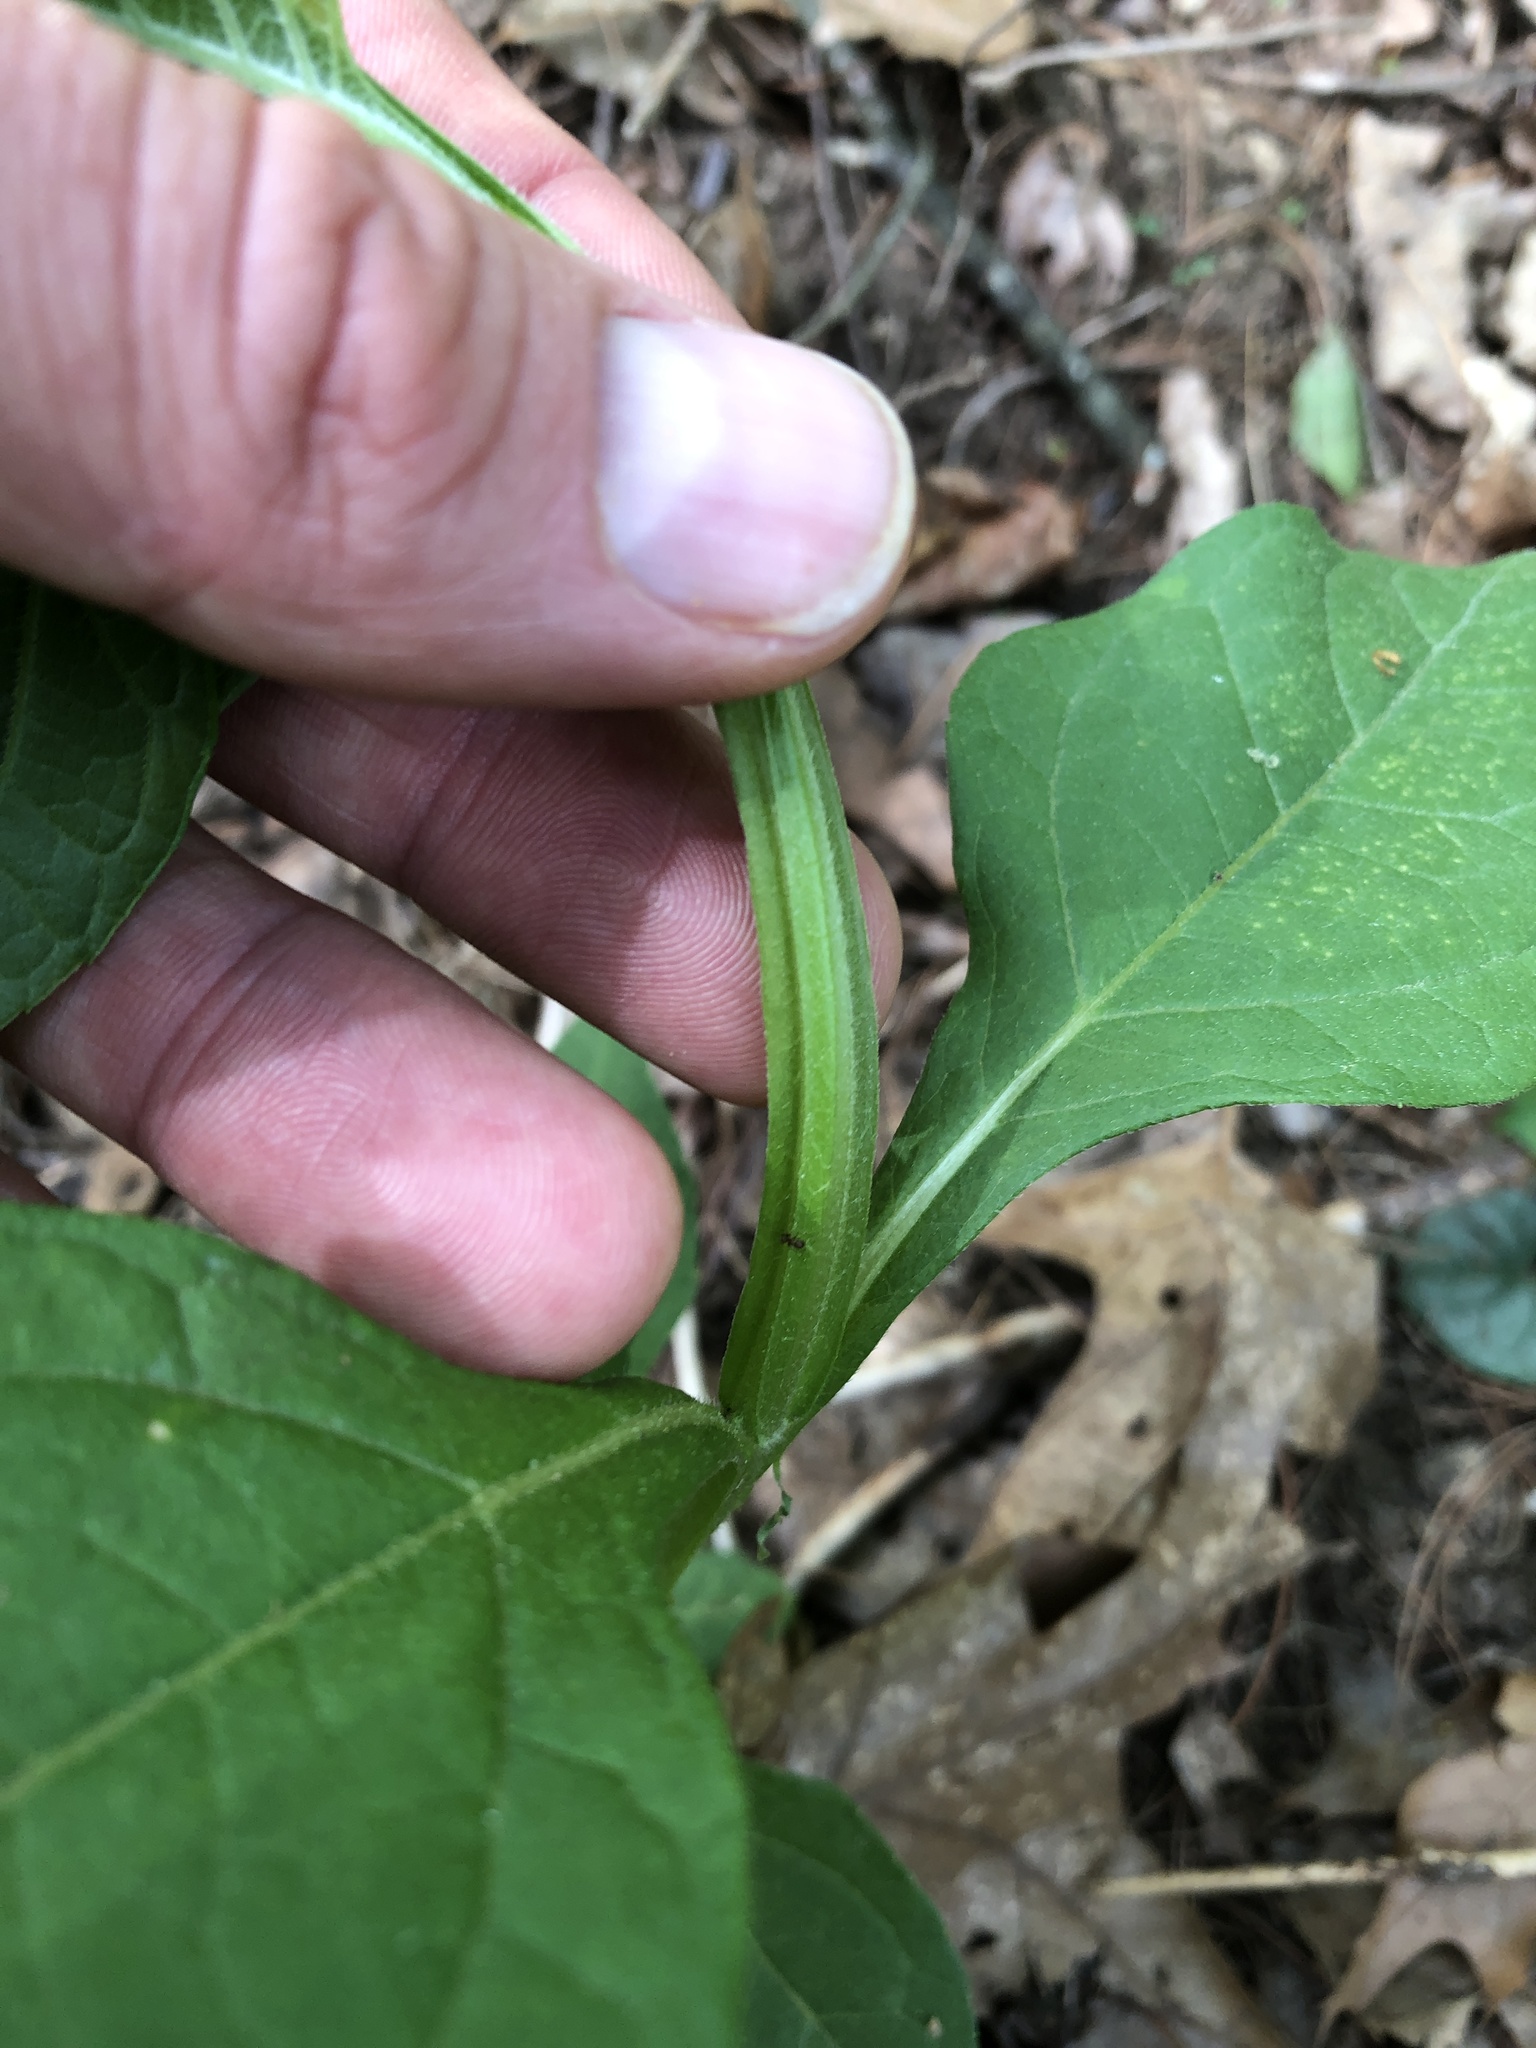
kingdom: Plantae
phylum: Tracheophyta
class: Magnoliopsida
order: Asterales
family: Asteraceae
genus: Verbesina
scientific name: Verbesina occidentalis
